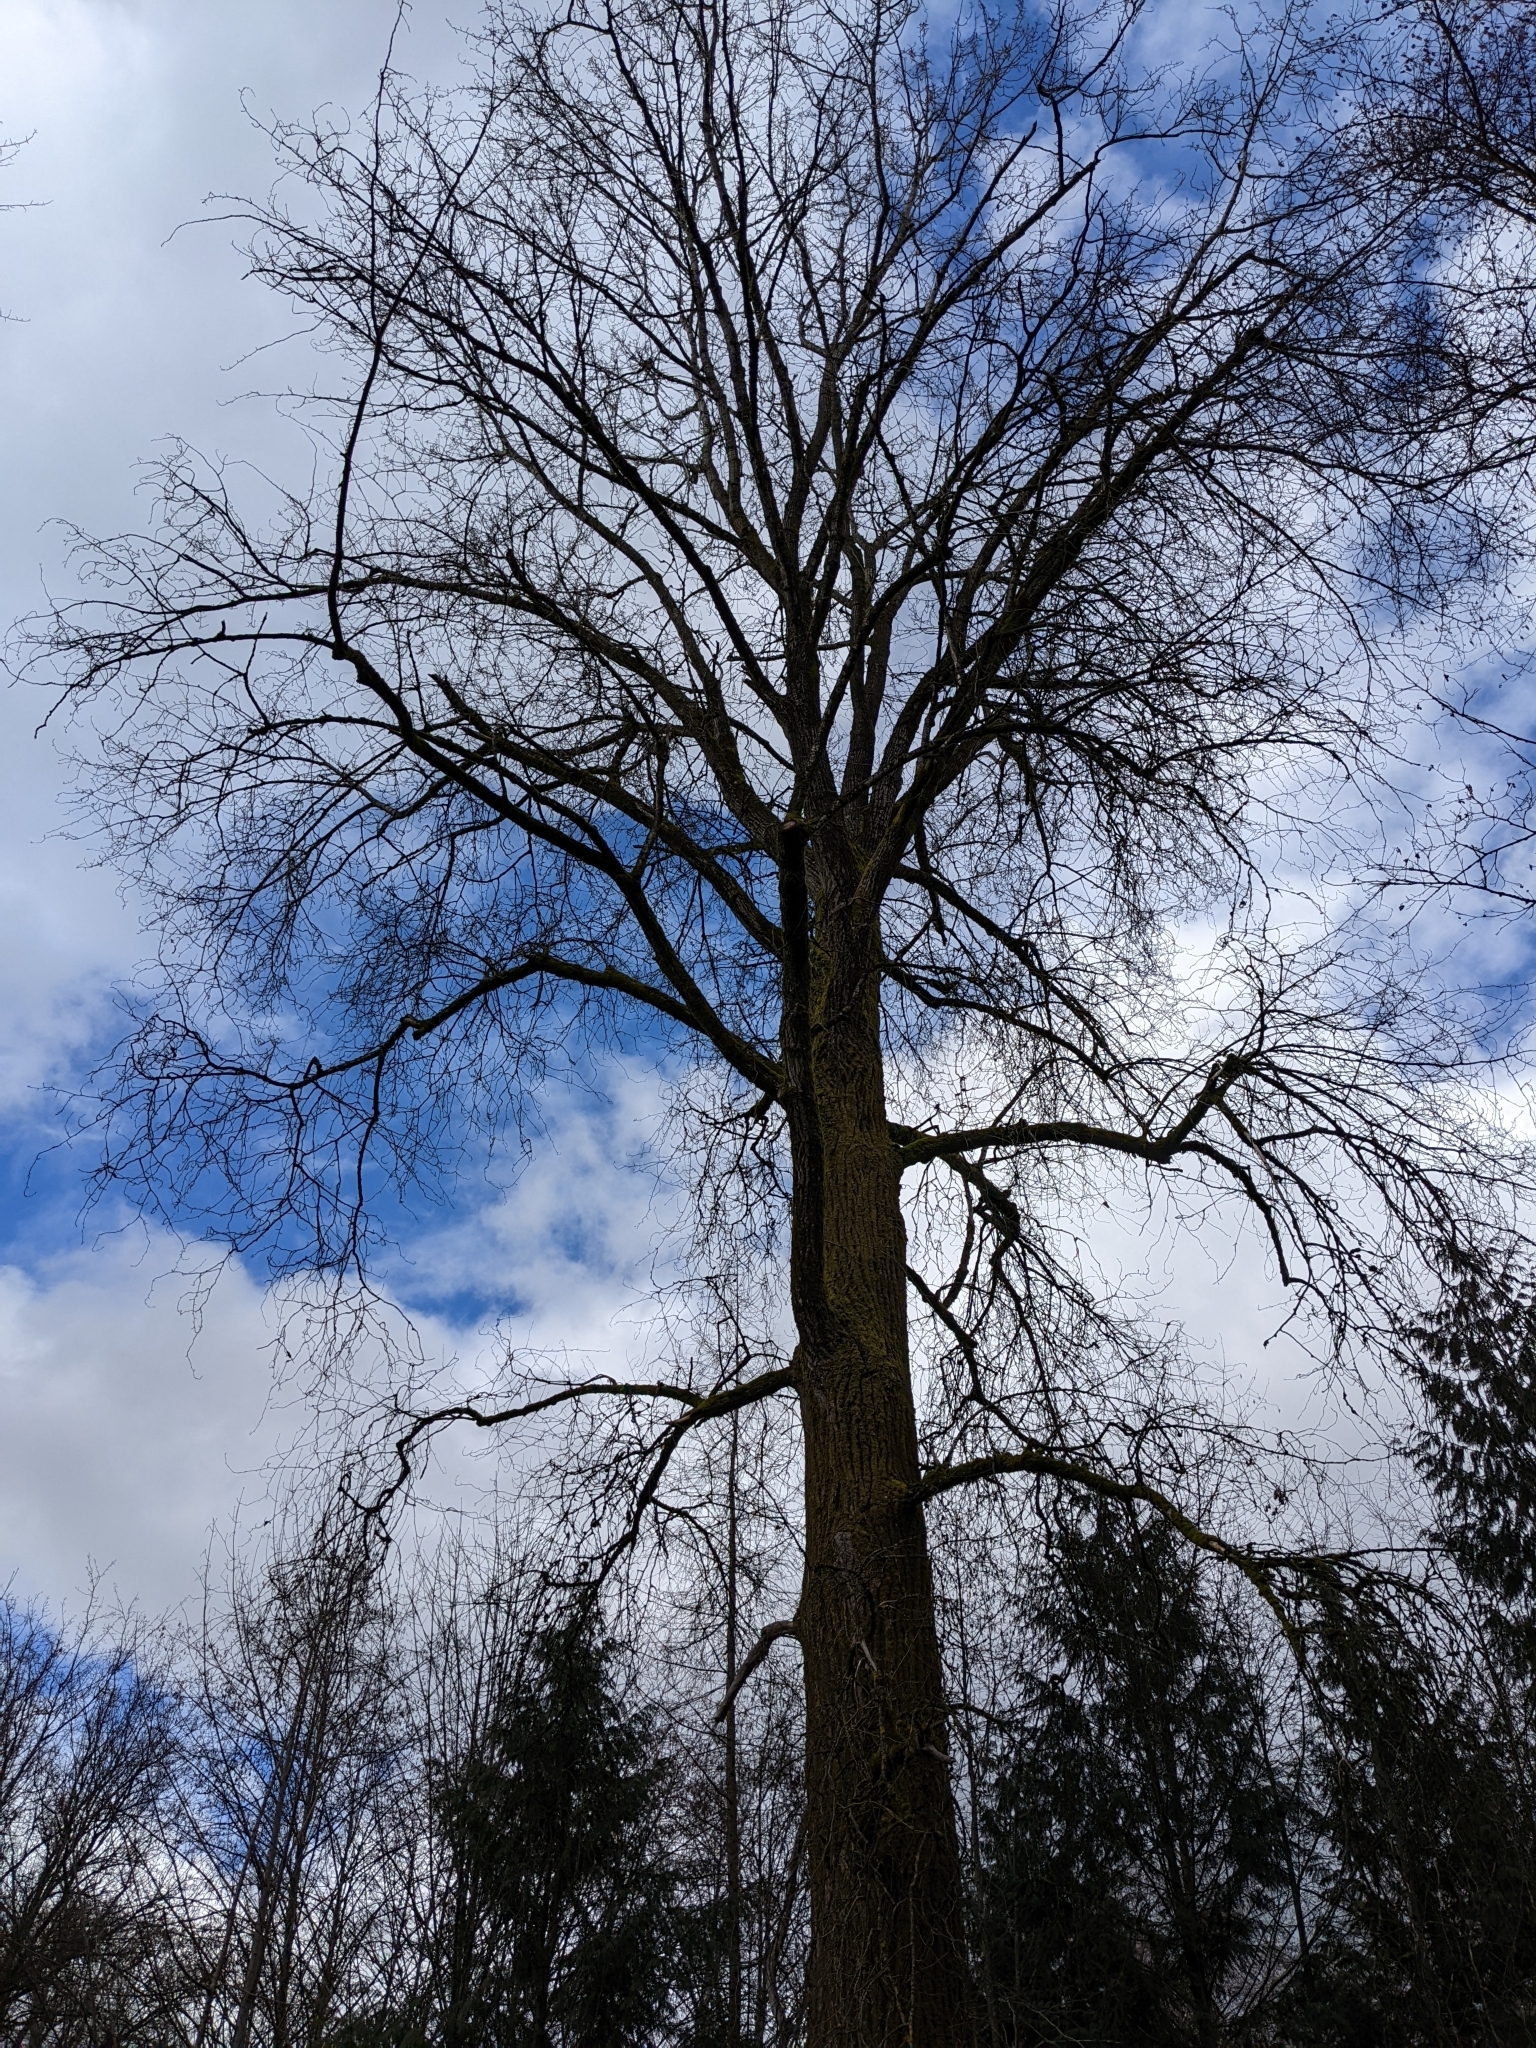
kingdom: Plantae
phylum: Tracheophyta
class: Magnoliopsida
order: Malpighiales
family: Salicaceae
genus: Populus
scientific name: Populus trichocarpa
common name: Black cottonwood
